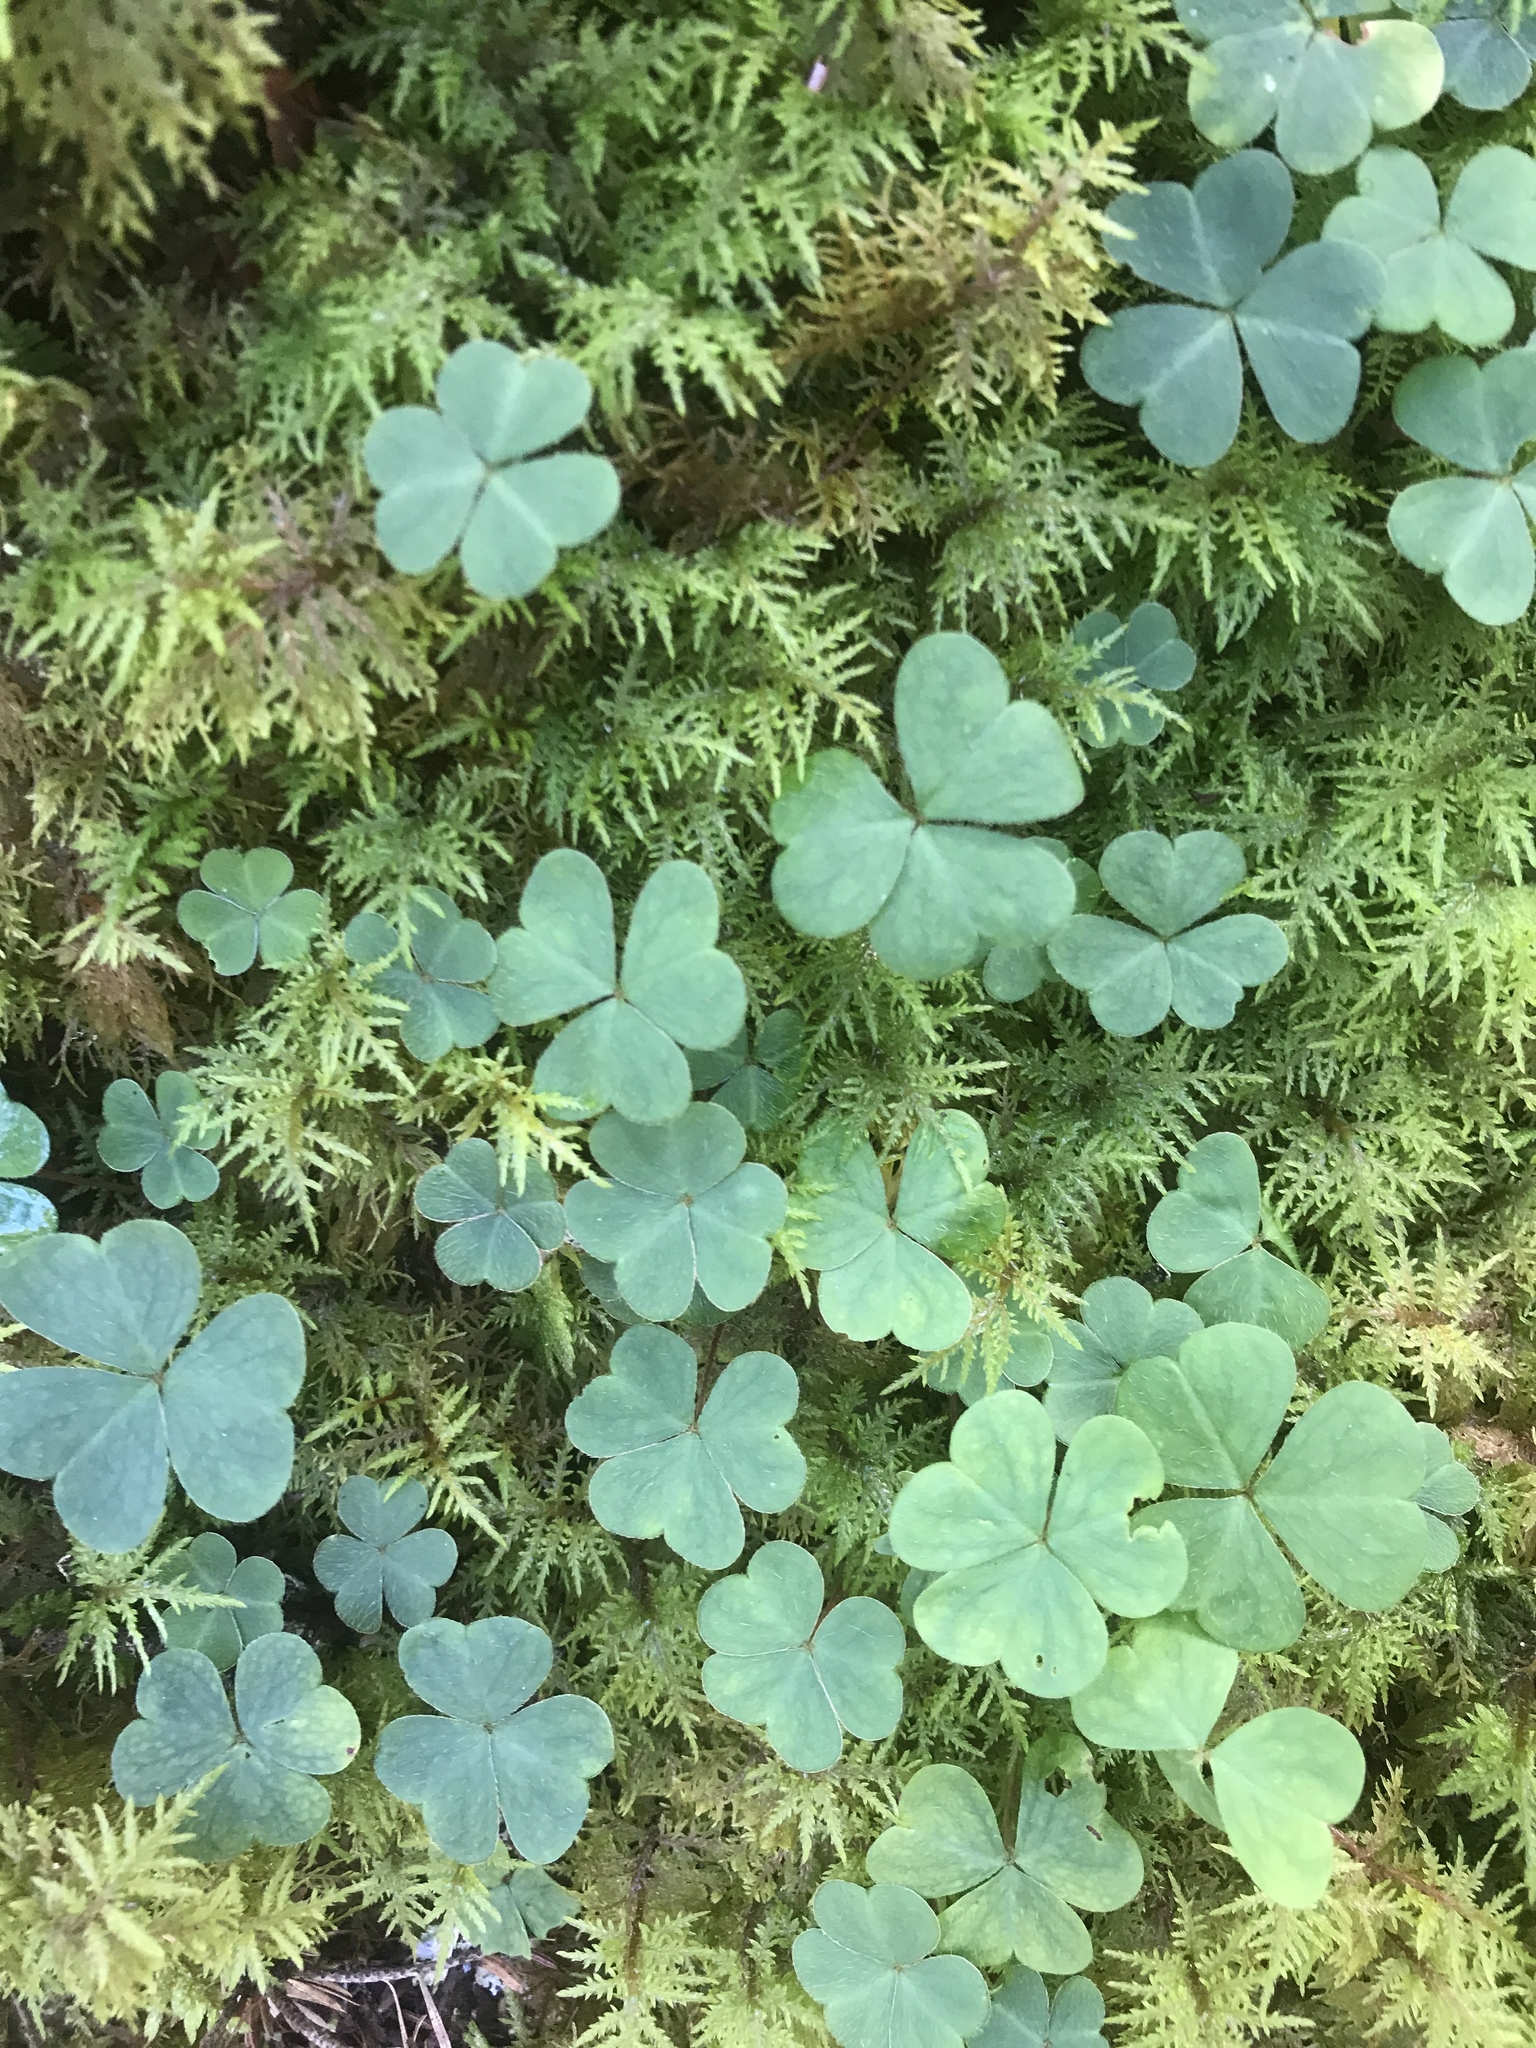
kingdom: Plantae
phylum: Tracheophyta
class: Magnoliopsida
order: Oxalidales
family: Oxalidaceae
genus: Oxalis
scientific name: Oxalis montana
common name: American wood-sorrel
